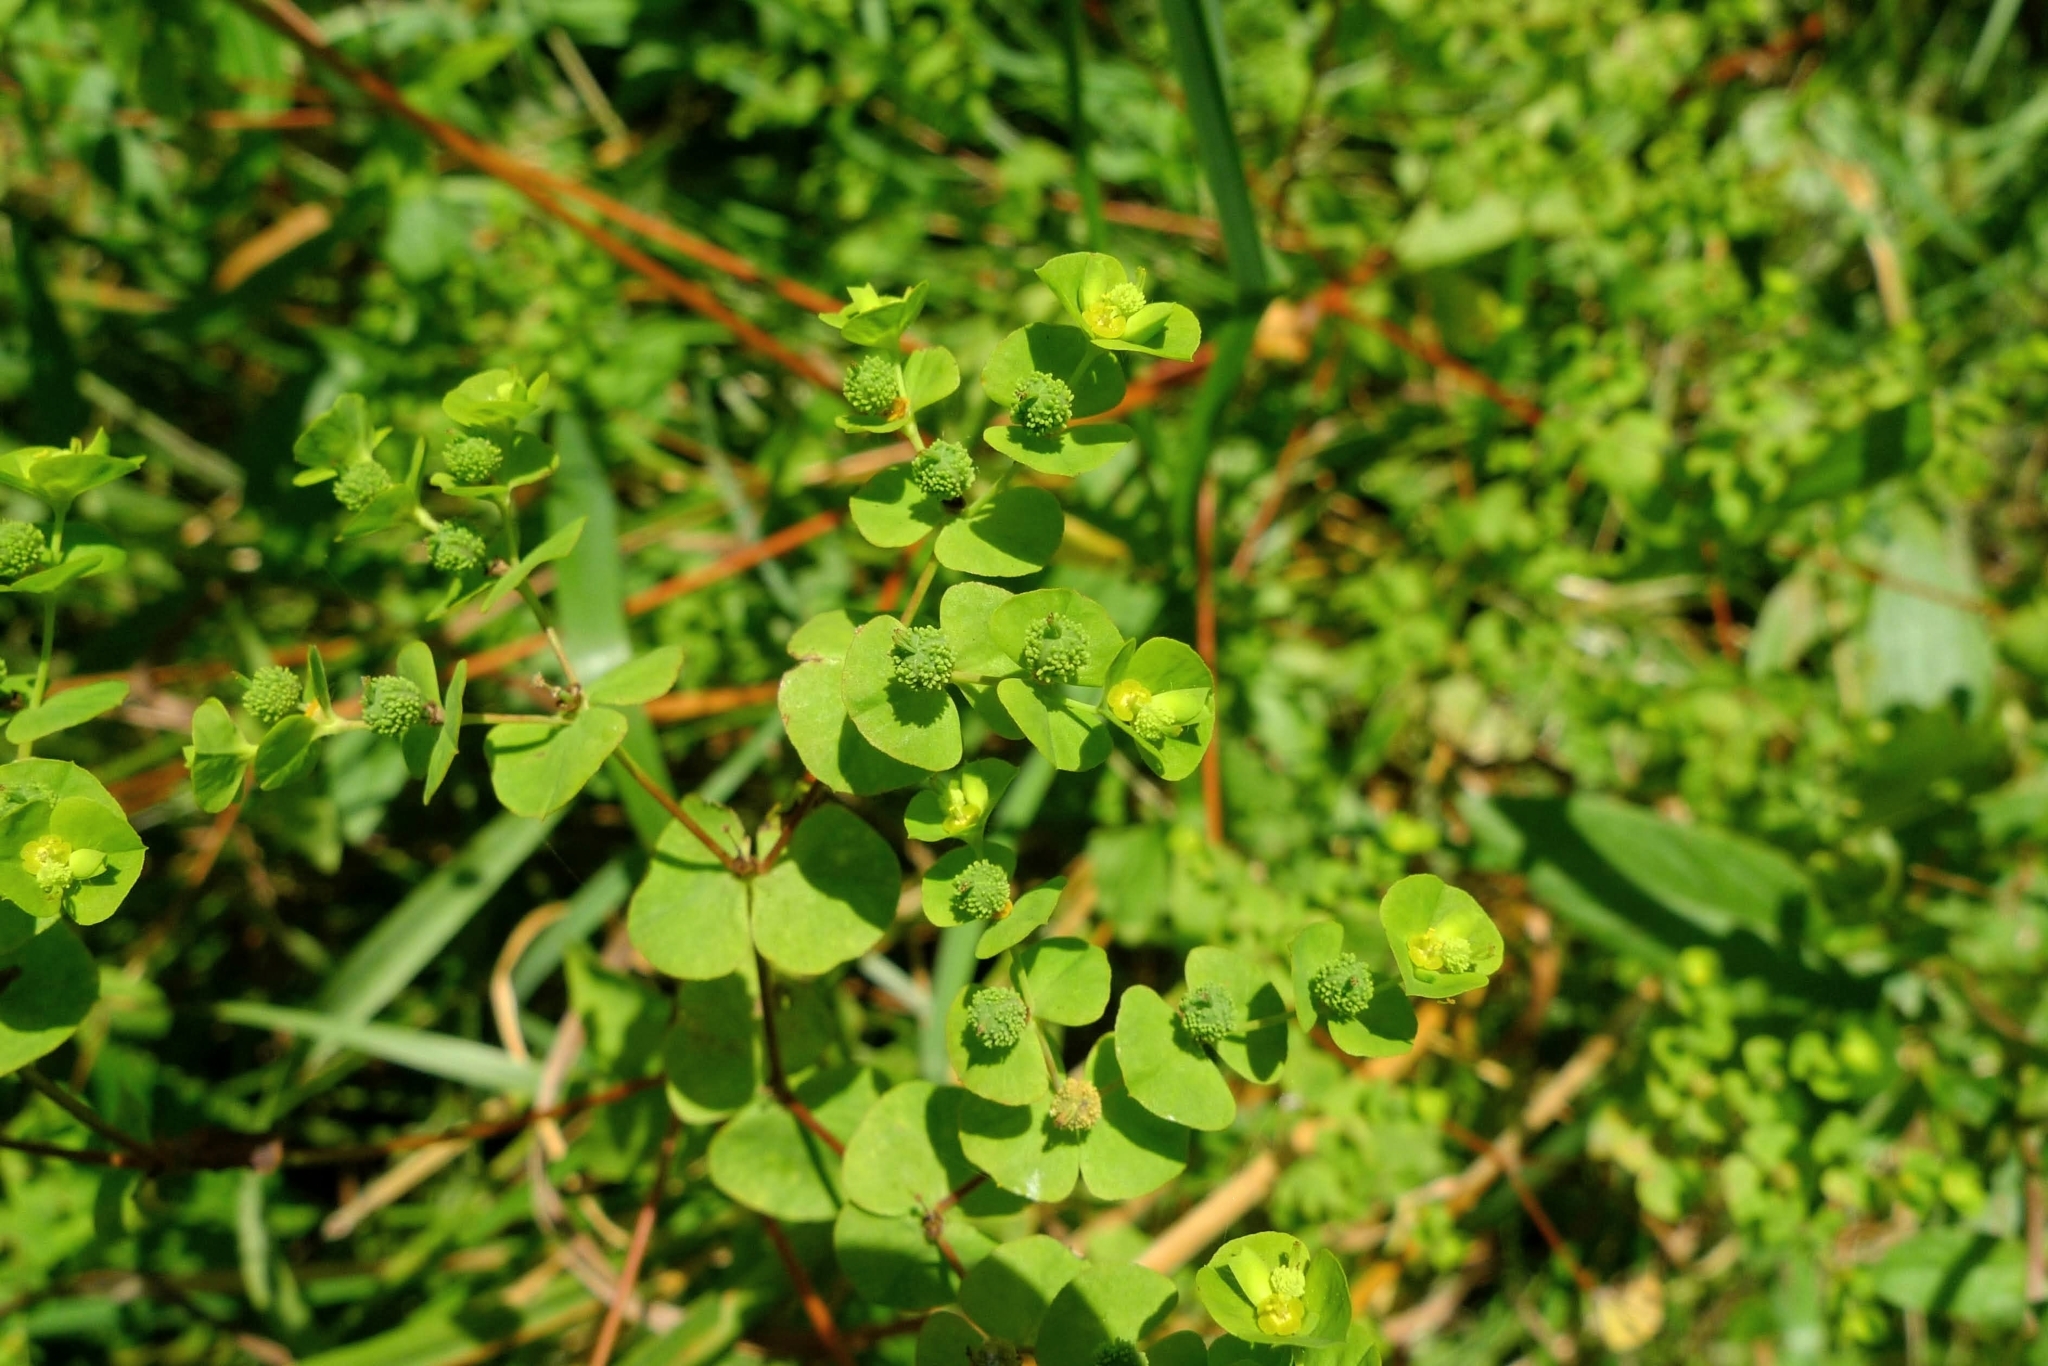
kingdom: Plantae
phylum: Tracheophyta
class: Magnoliopsida
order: Malpighiales
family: Euphorbiaceae
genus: Euphorbia
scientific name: Euphorbia stricta
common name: Upright spurge
